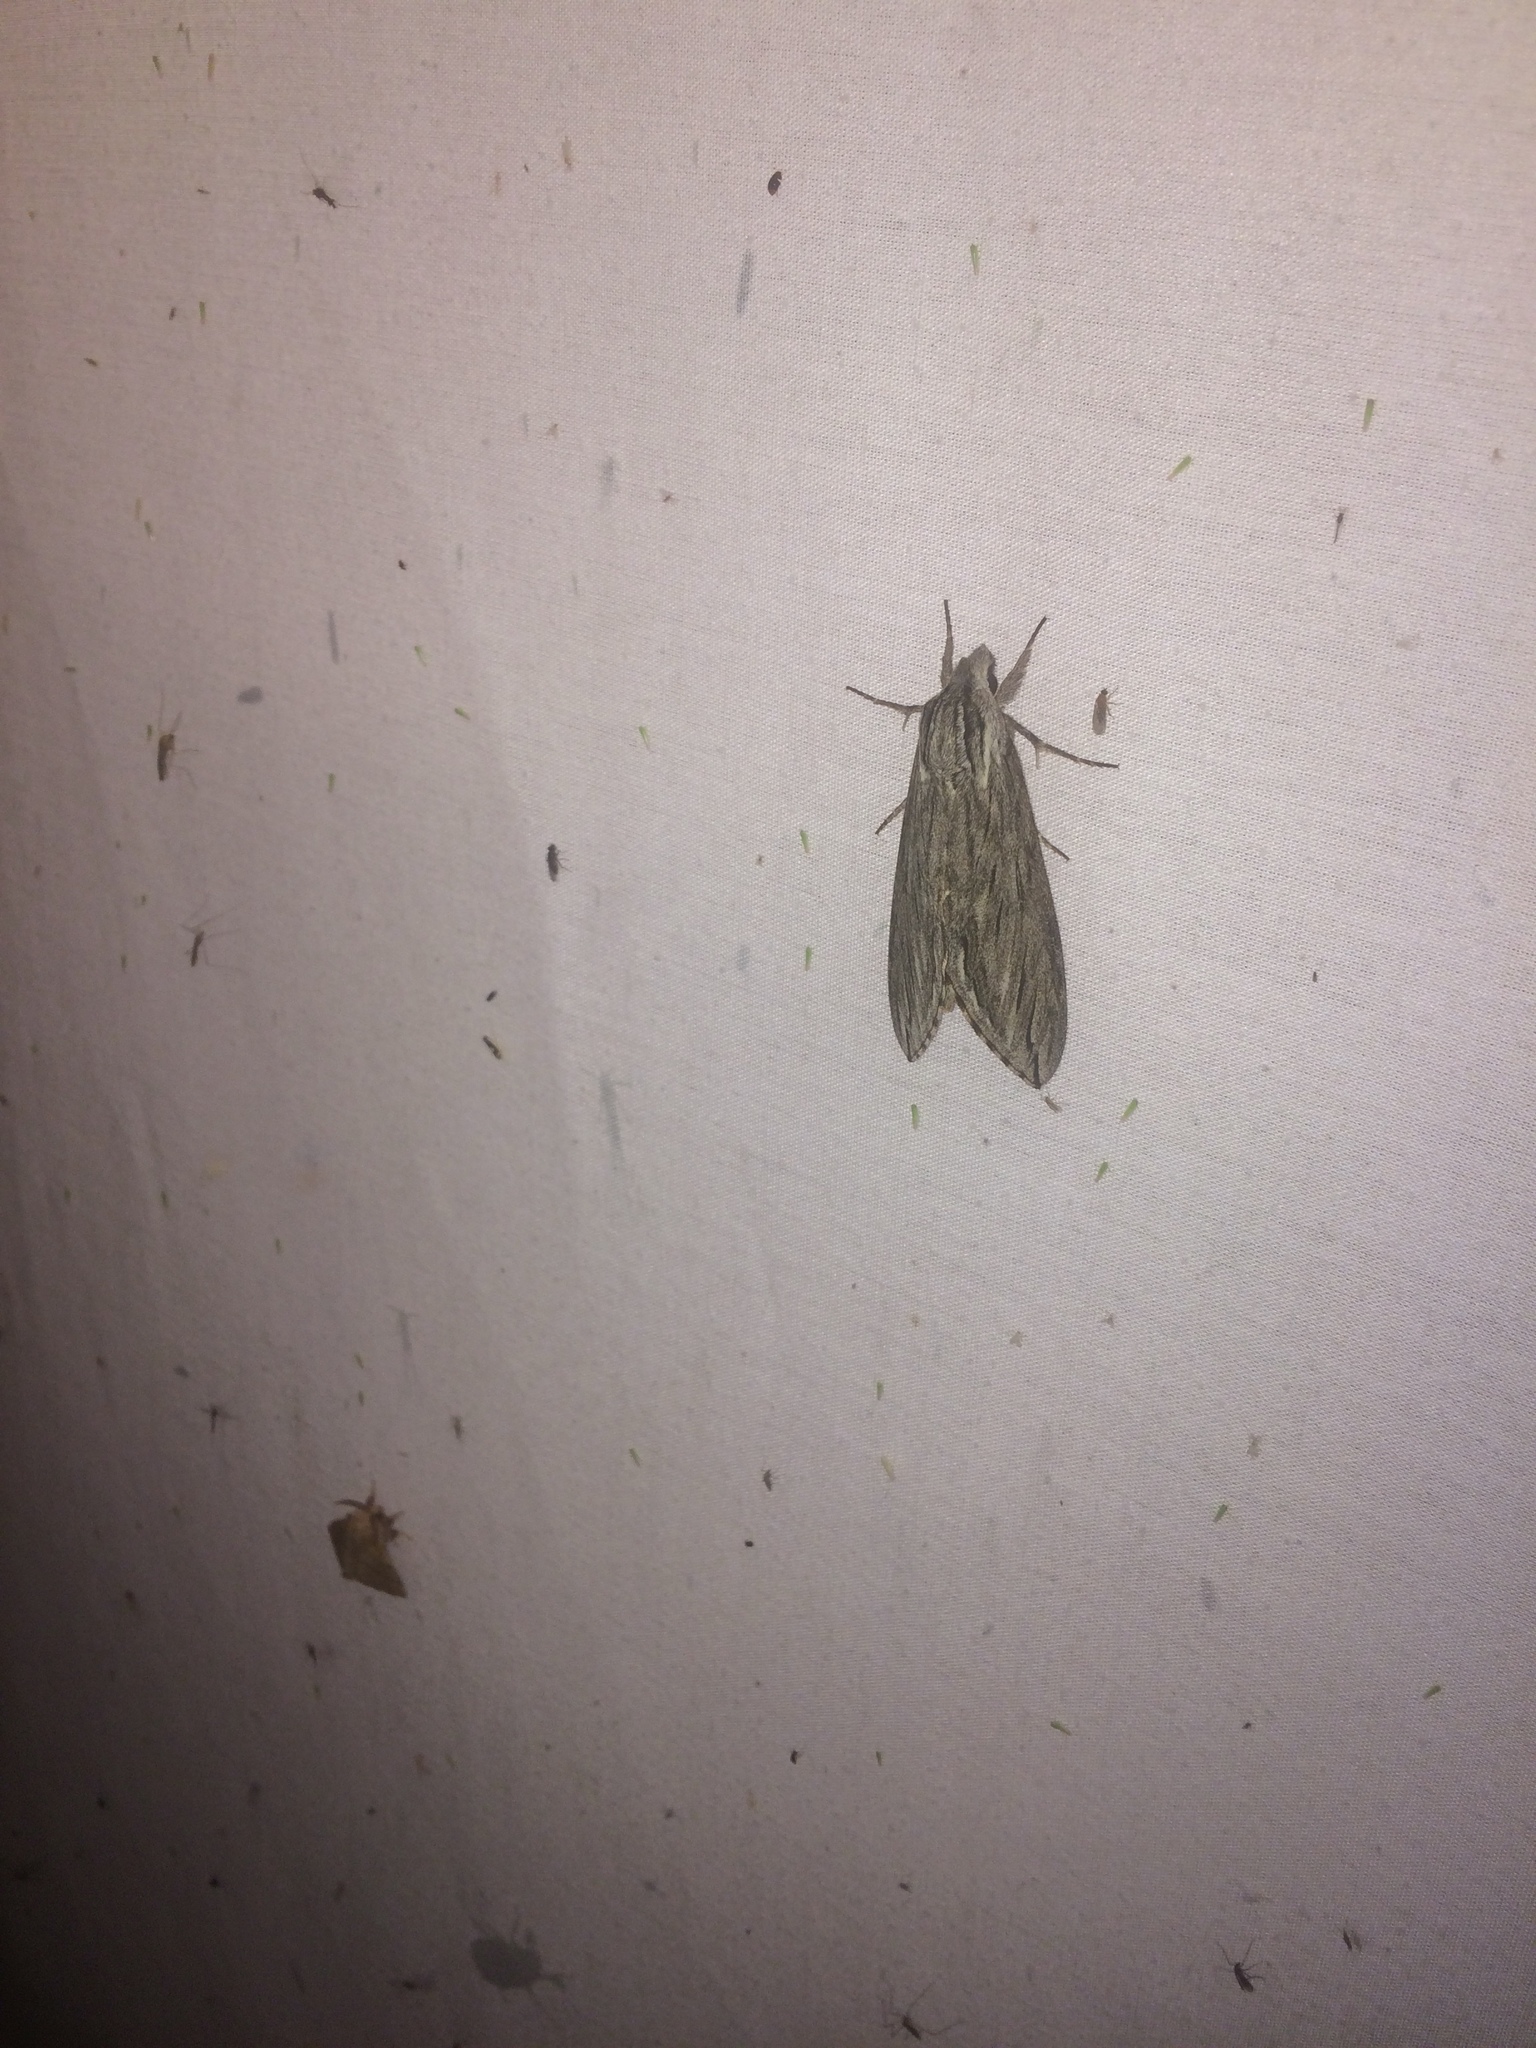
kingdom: Animalia
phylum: Arthropoda
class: Insecta
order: Lepidoptera
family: Sphingidae
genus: Sphinx
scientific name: Sphinx canadensis
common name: Canadian sphinx
